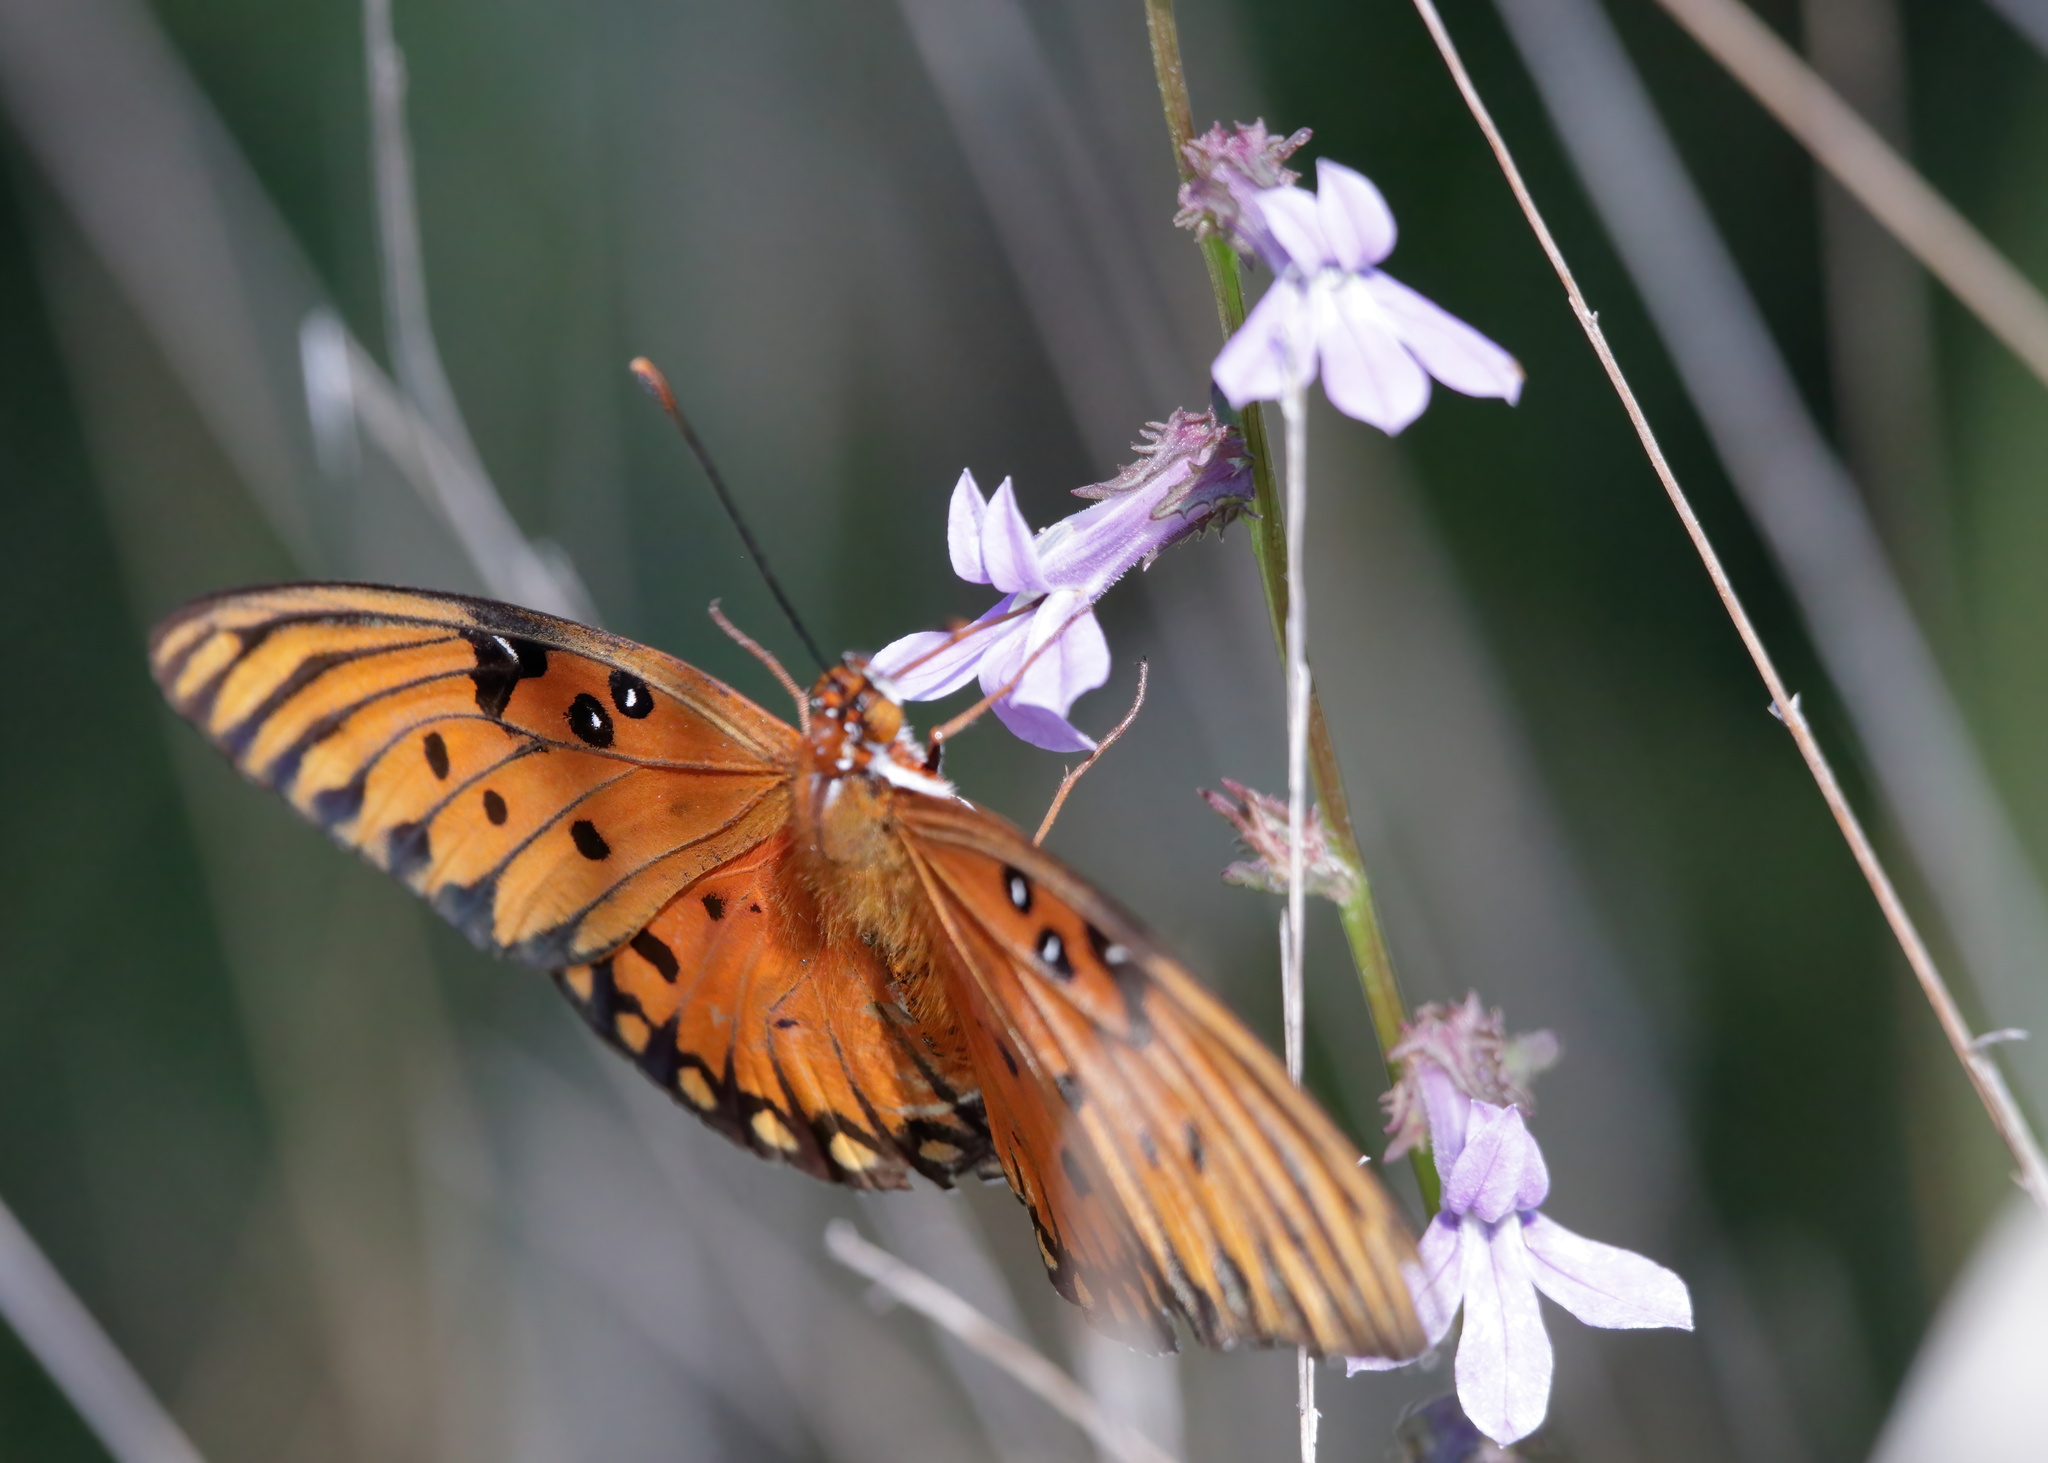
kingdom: Animalia
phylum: Arthropoda
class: Insecta
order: Lepidoptera
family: Nymphalidae
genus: Dione
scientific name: Dione vanillae
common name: Gulf fritillary
